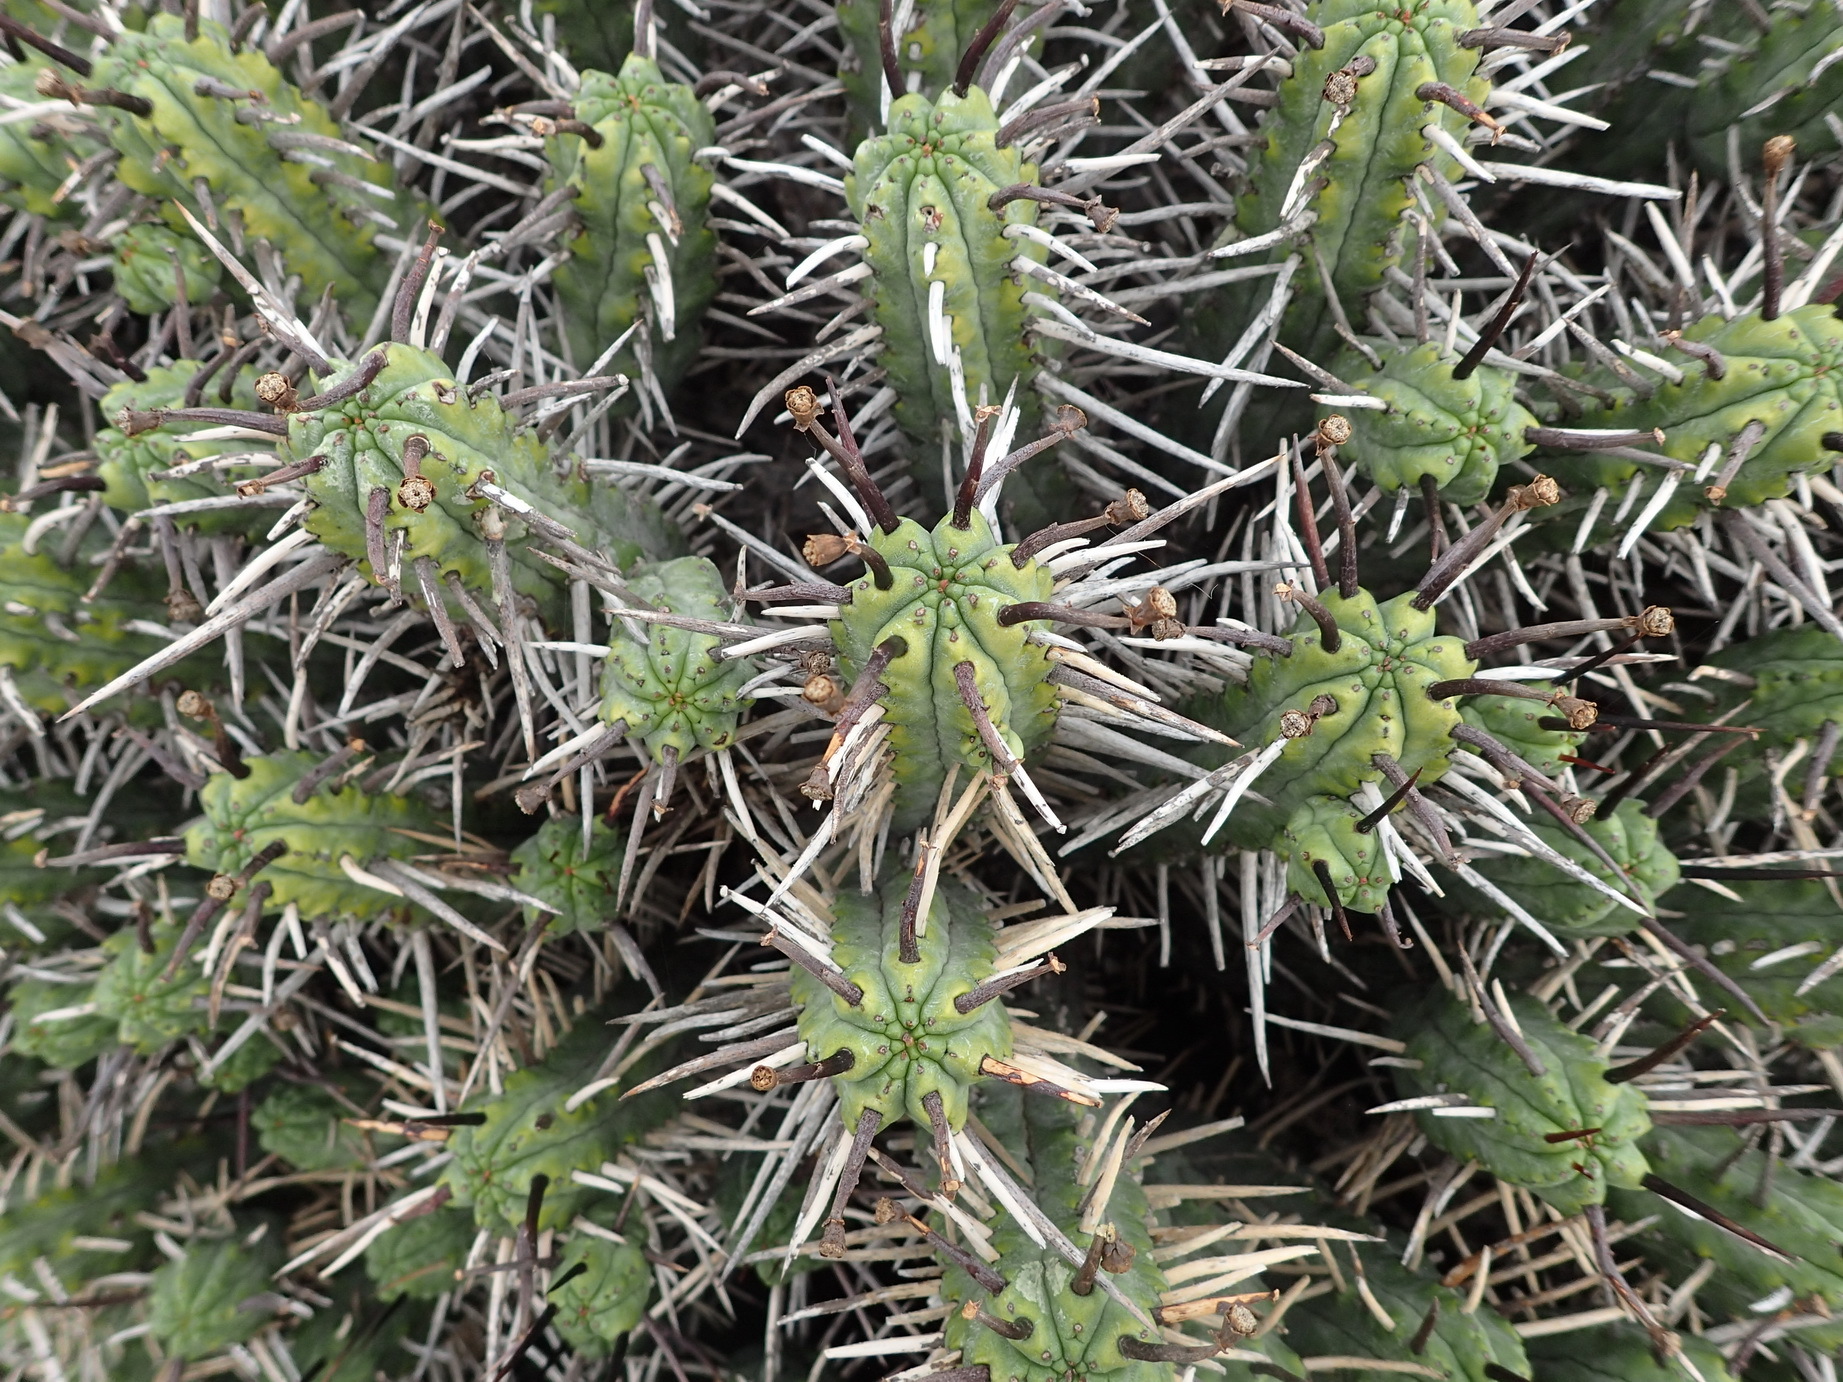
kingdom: Plantae
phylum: Tracheophyta
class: Magnoliopsida
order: Malpighiales
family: Euphorbiaceae
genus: Euphorbia
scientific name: Euphorbia heptagona
